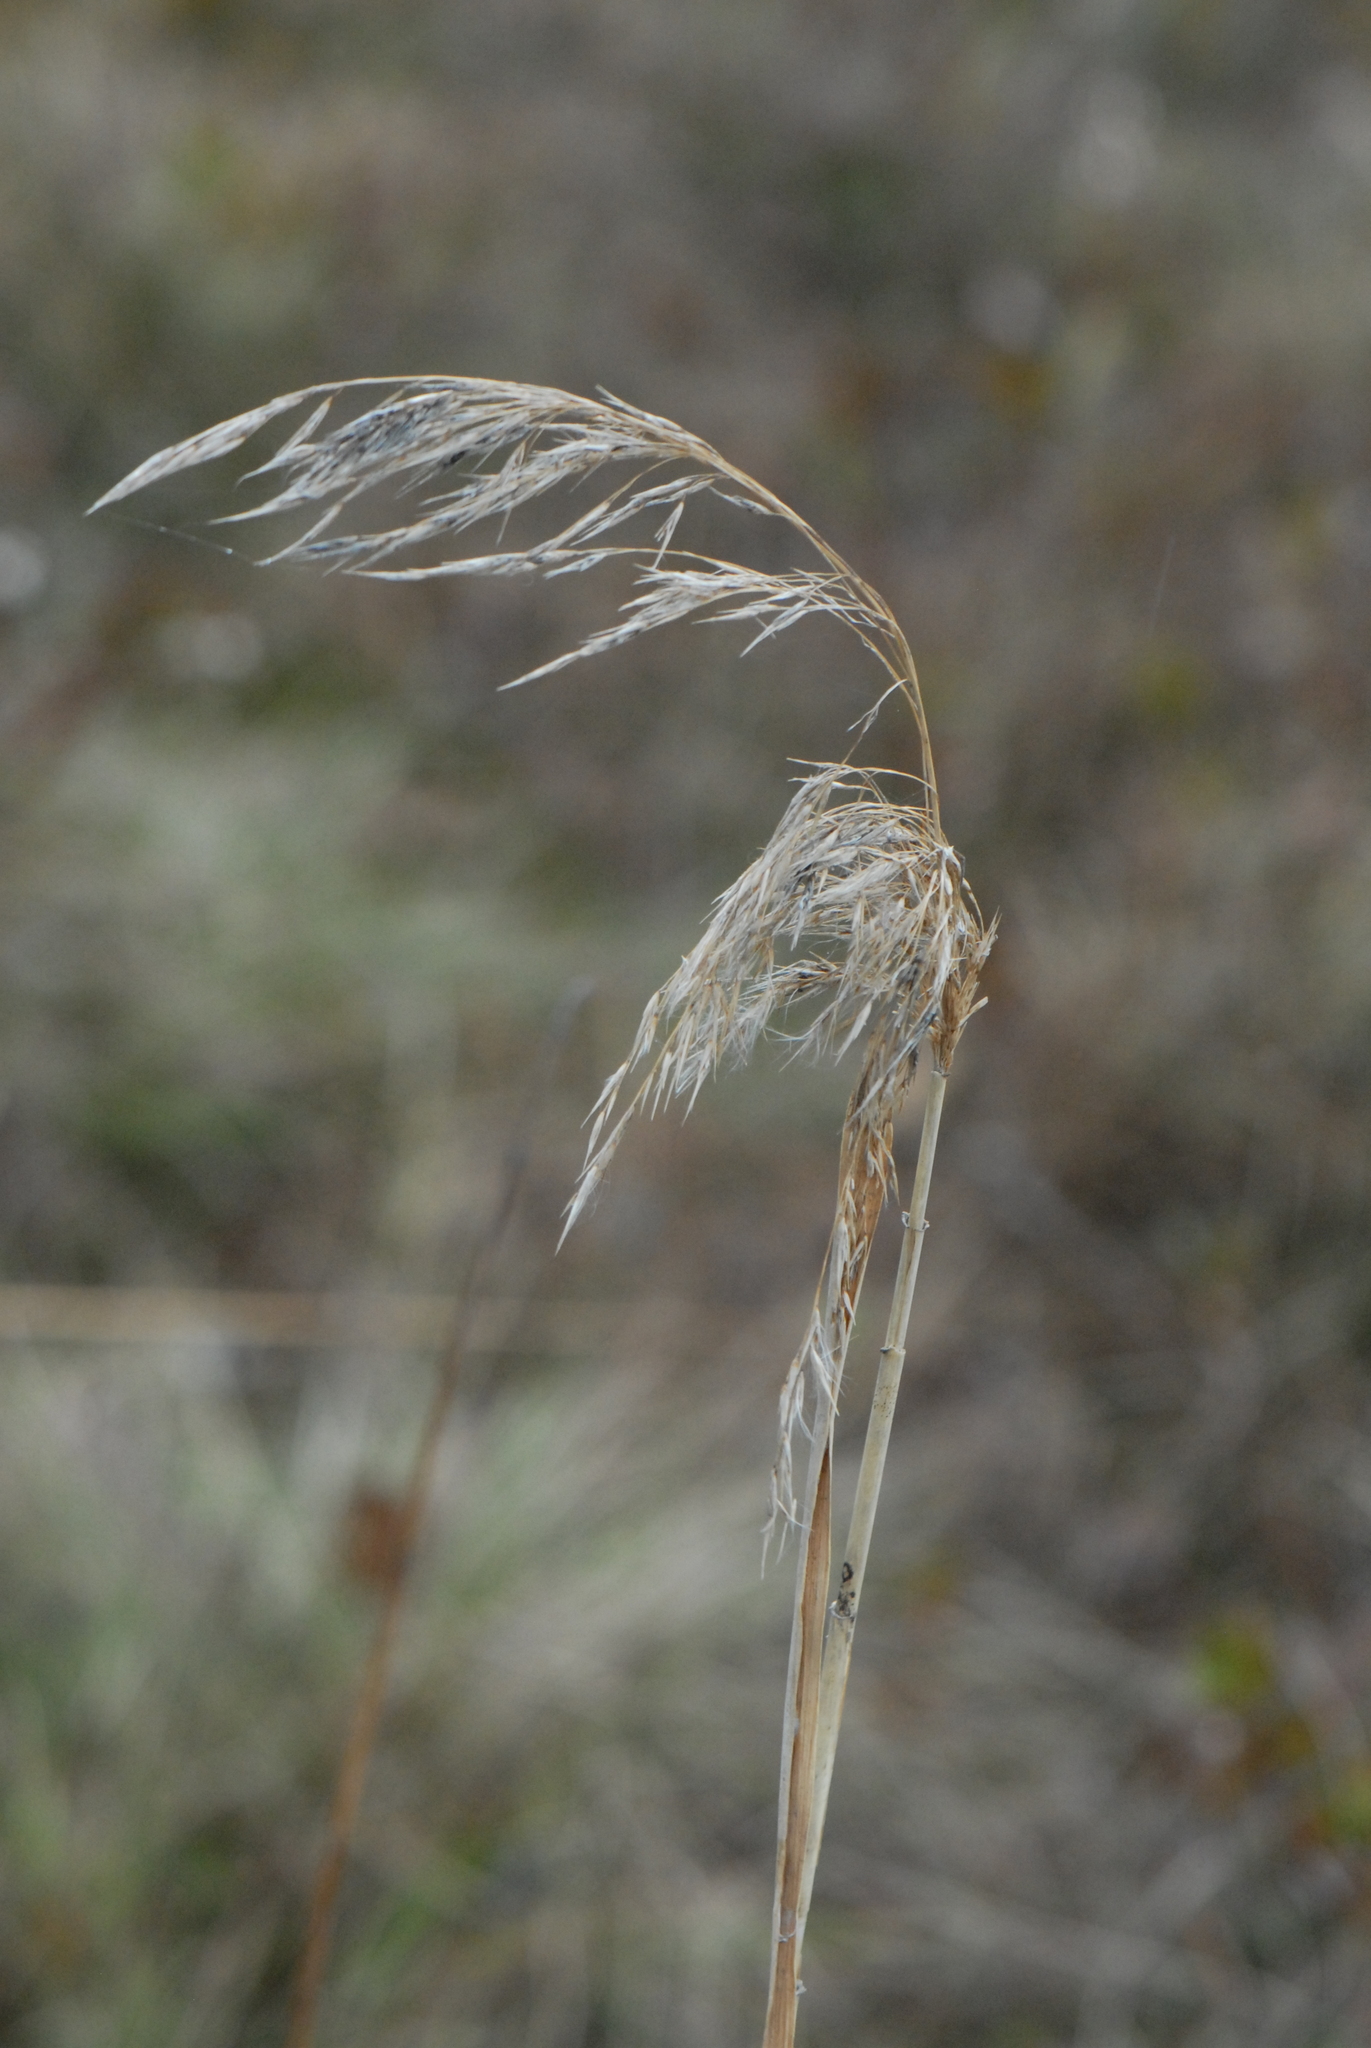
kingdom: Plantae
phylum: Tracheophyta
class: Liliopsida
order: Poales
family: Poaceae
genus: Calamagrostis
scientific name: Calamagrostis canescens
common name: Purple small-reed
